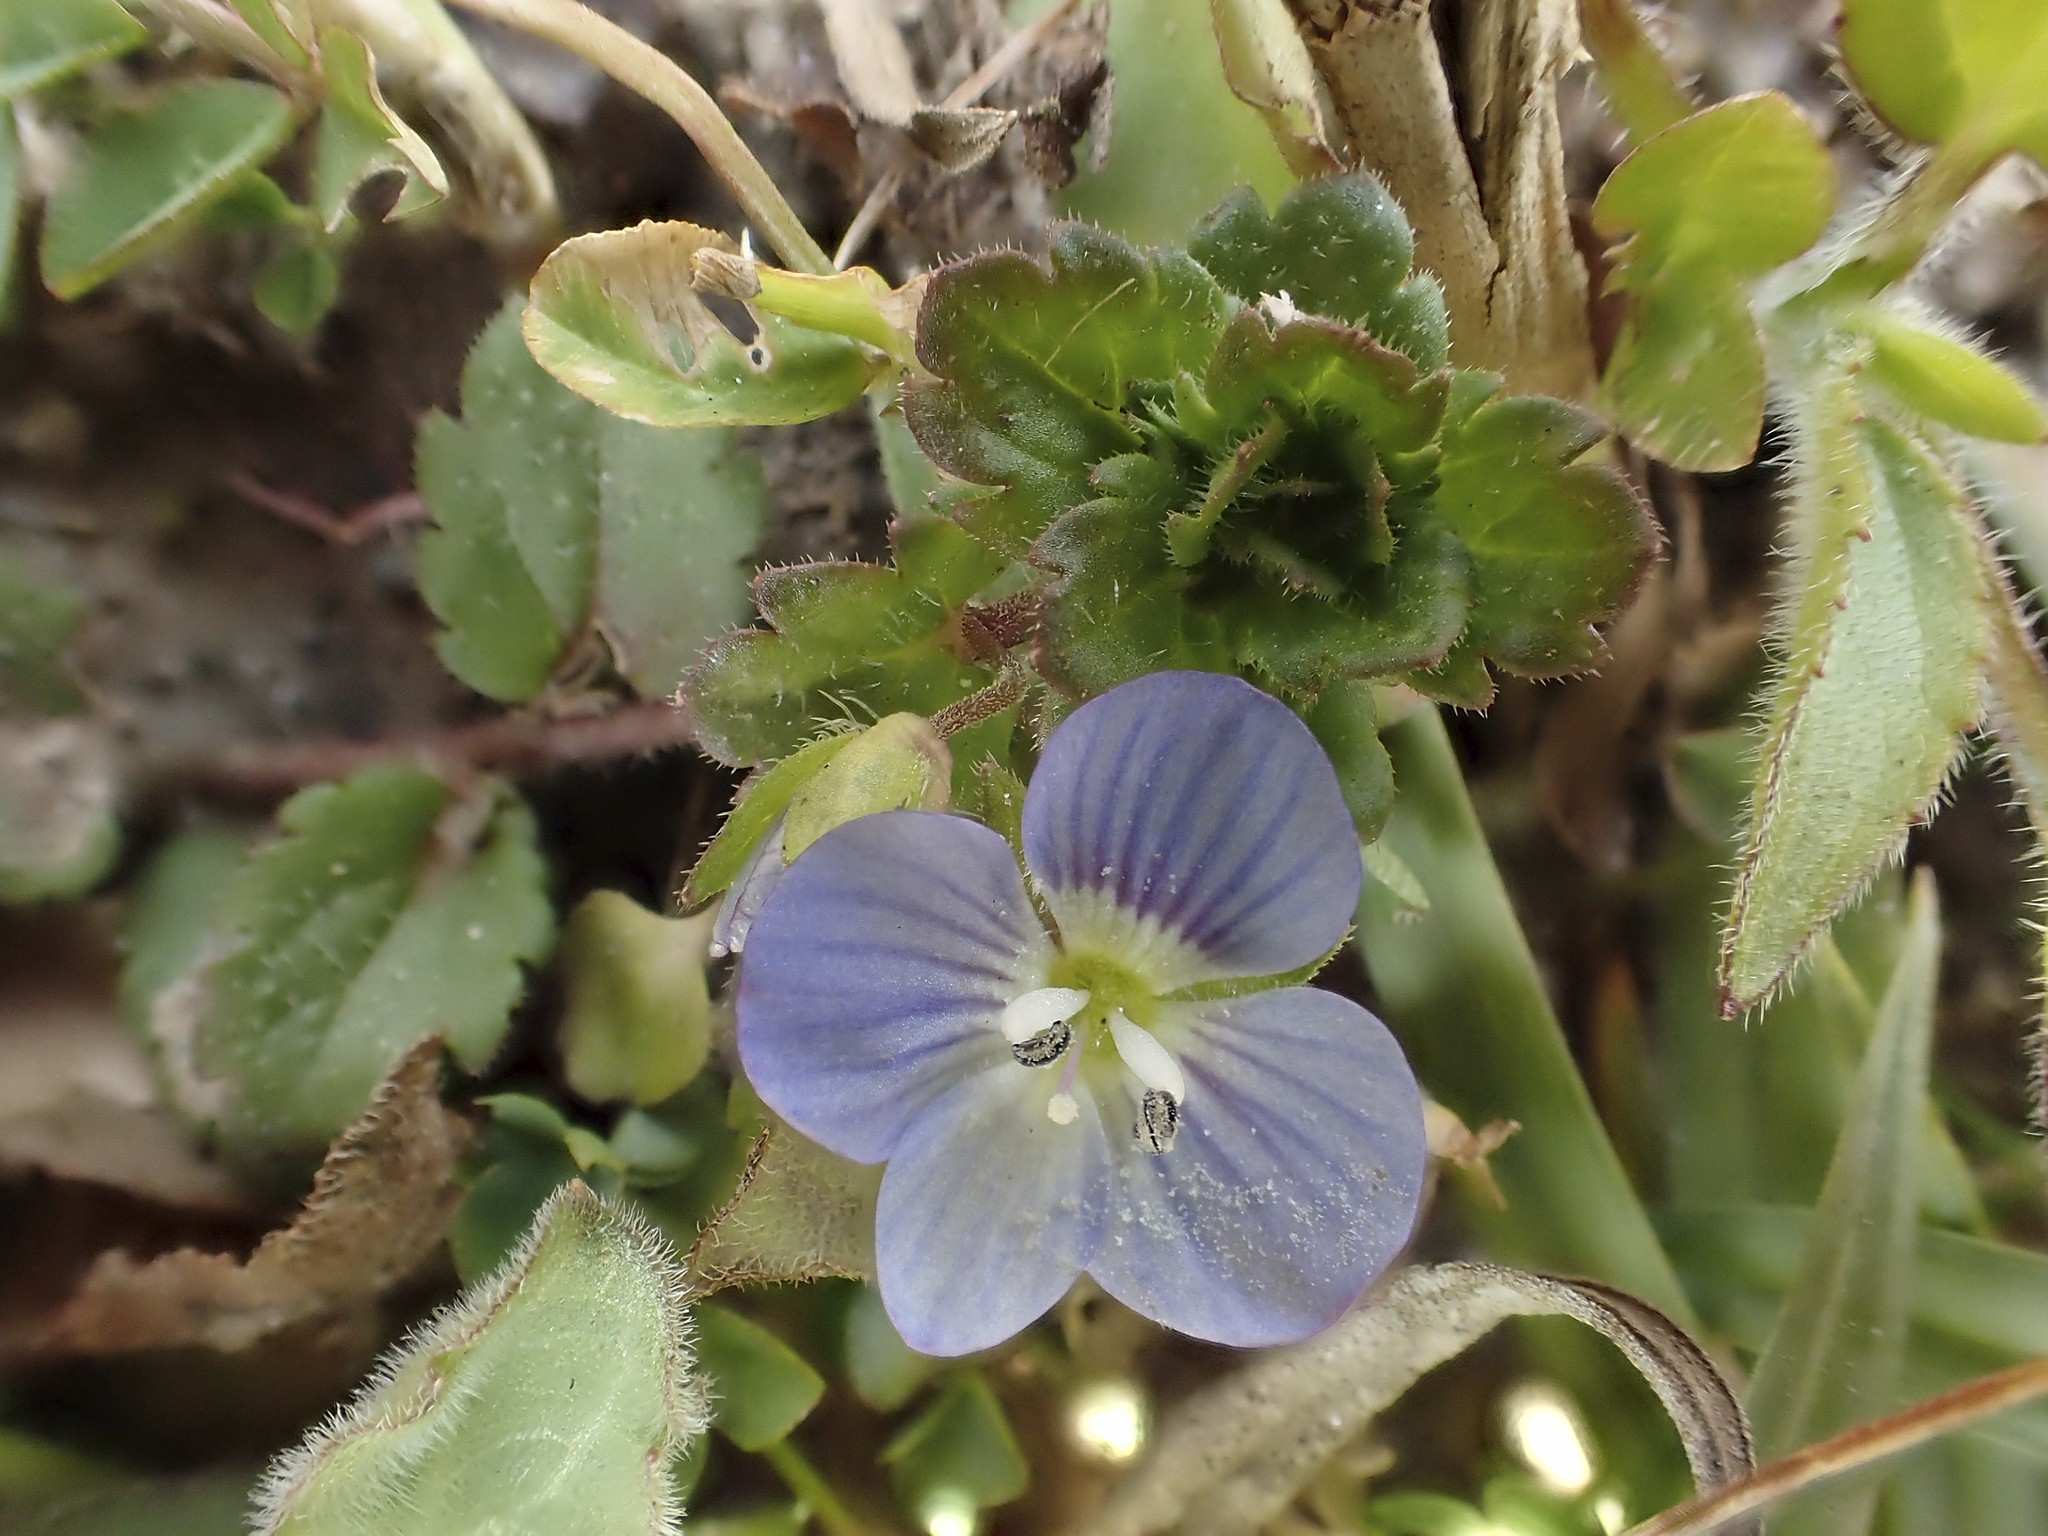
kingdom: Plantae
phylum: Tracheophyta
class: Magnoliopsida
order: Lamiales
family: Plantaginaceae
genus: Veronica
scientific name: Veronica persica
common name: Common field-speedwell
